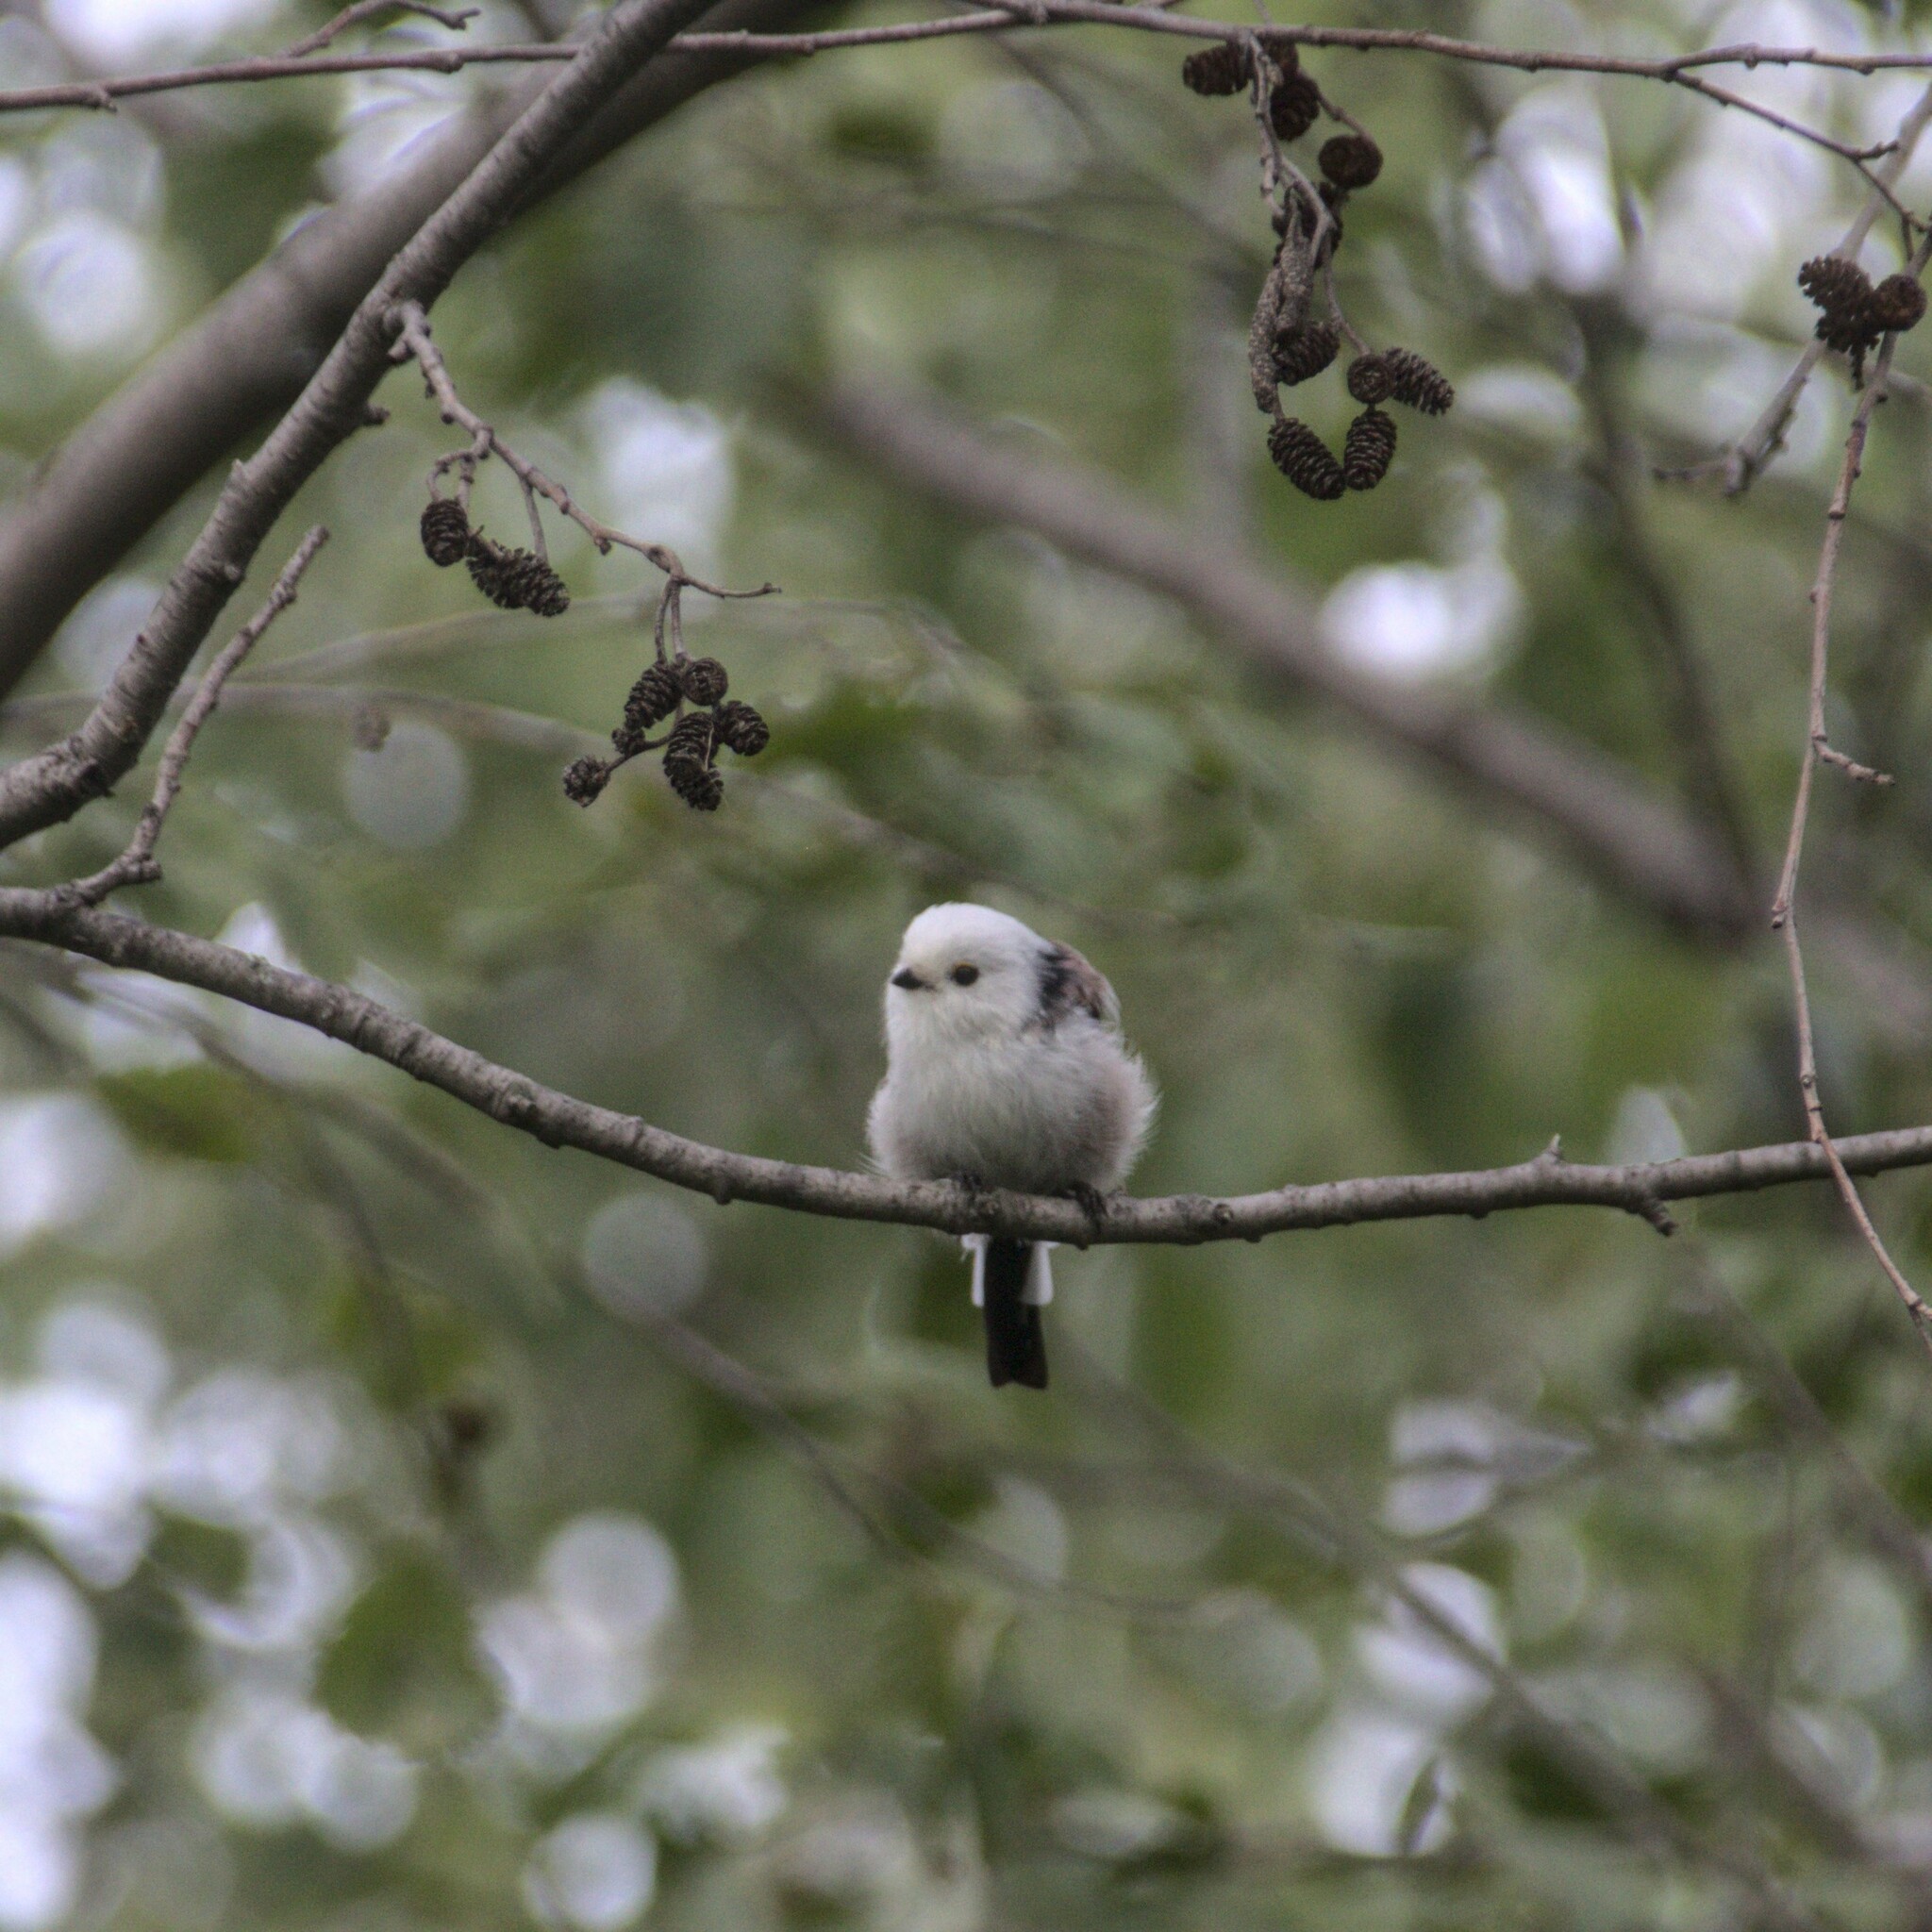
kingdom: Animalia
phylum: Chordata
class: Aves
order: Passeriformes
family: Aegithalidae
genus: Aegithalos
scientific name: Aegithalos caudatus
